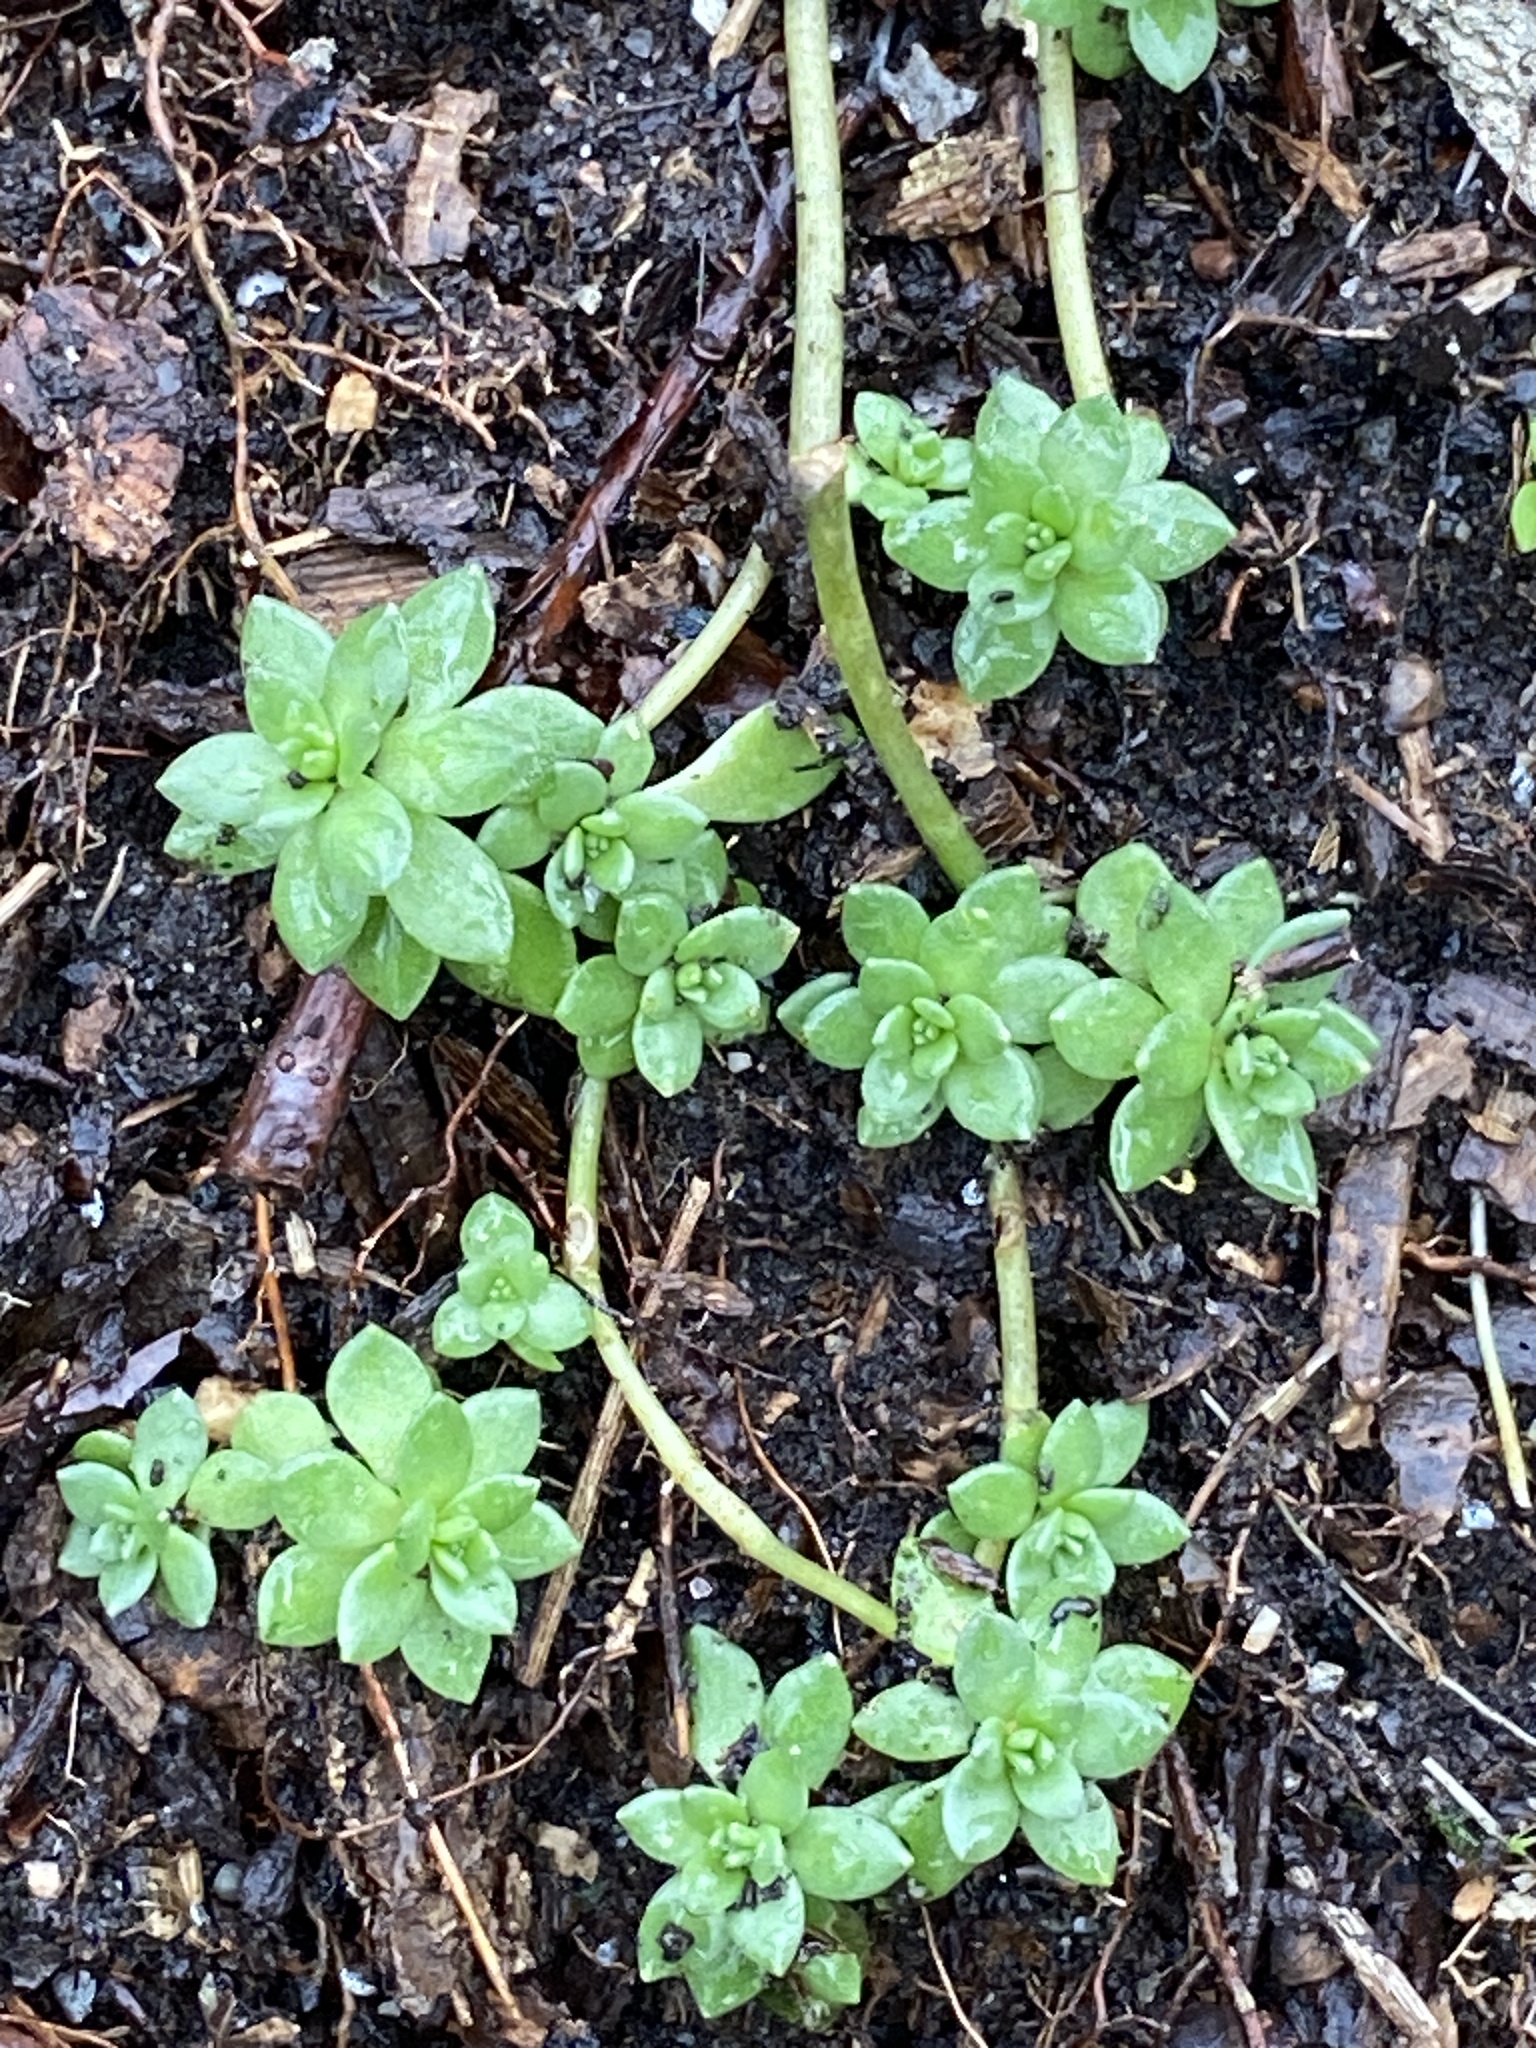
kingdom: Plantae
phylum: Tracheophyta
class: Magnoliopsida
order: Saxifragales
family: Crassulaceae
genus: Sedum
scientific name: Sedum sarmentosum
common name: Stringy stonecrop
